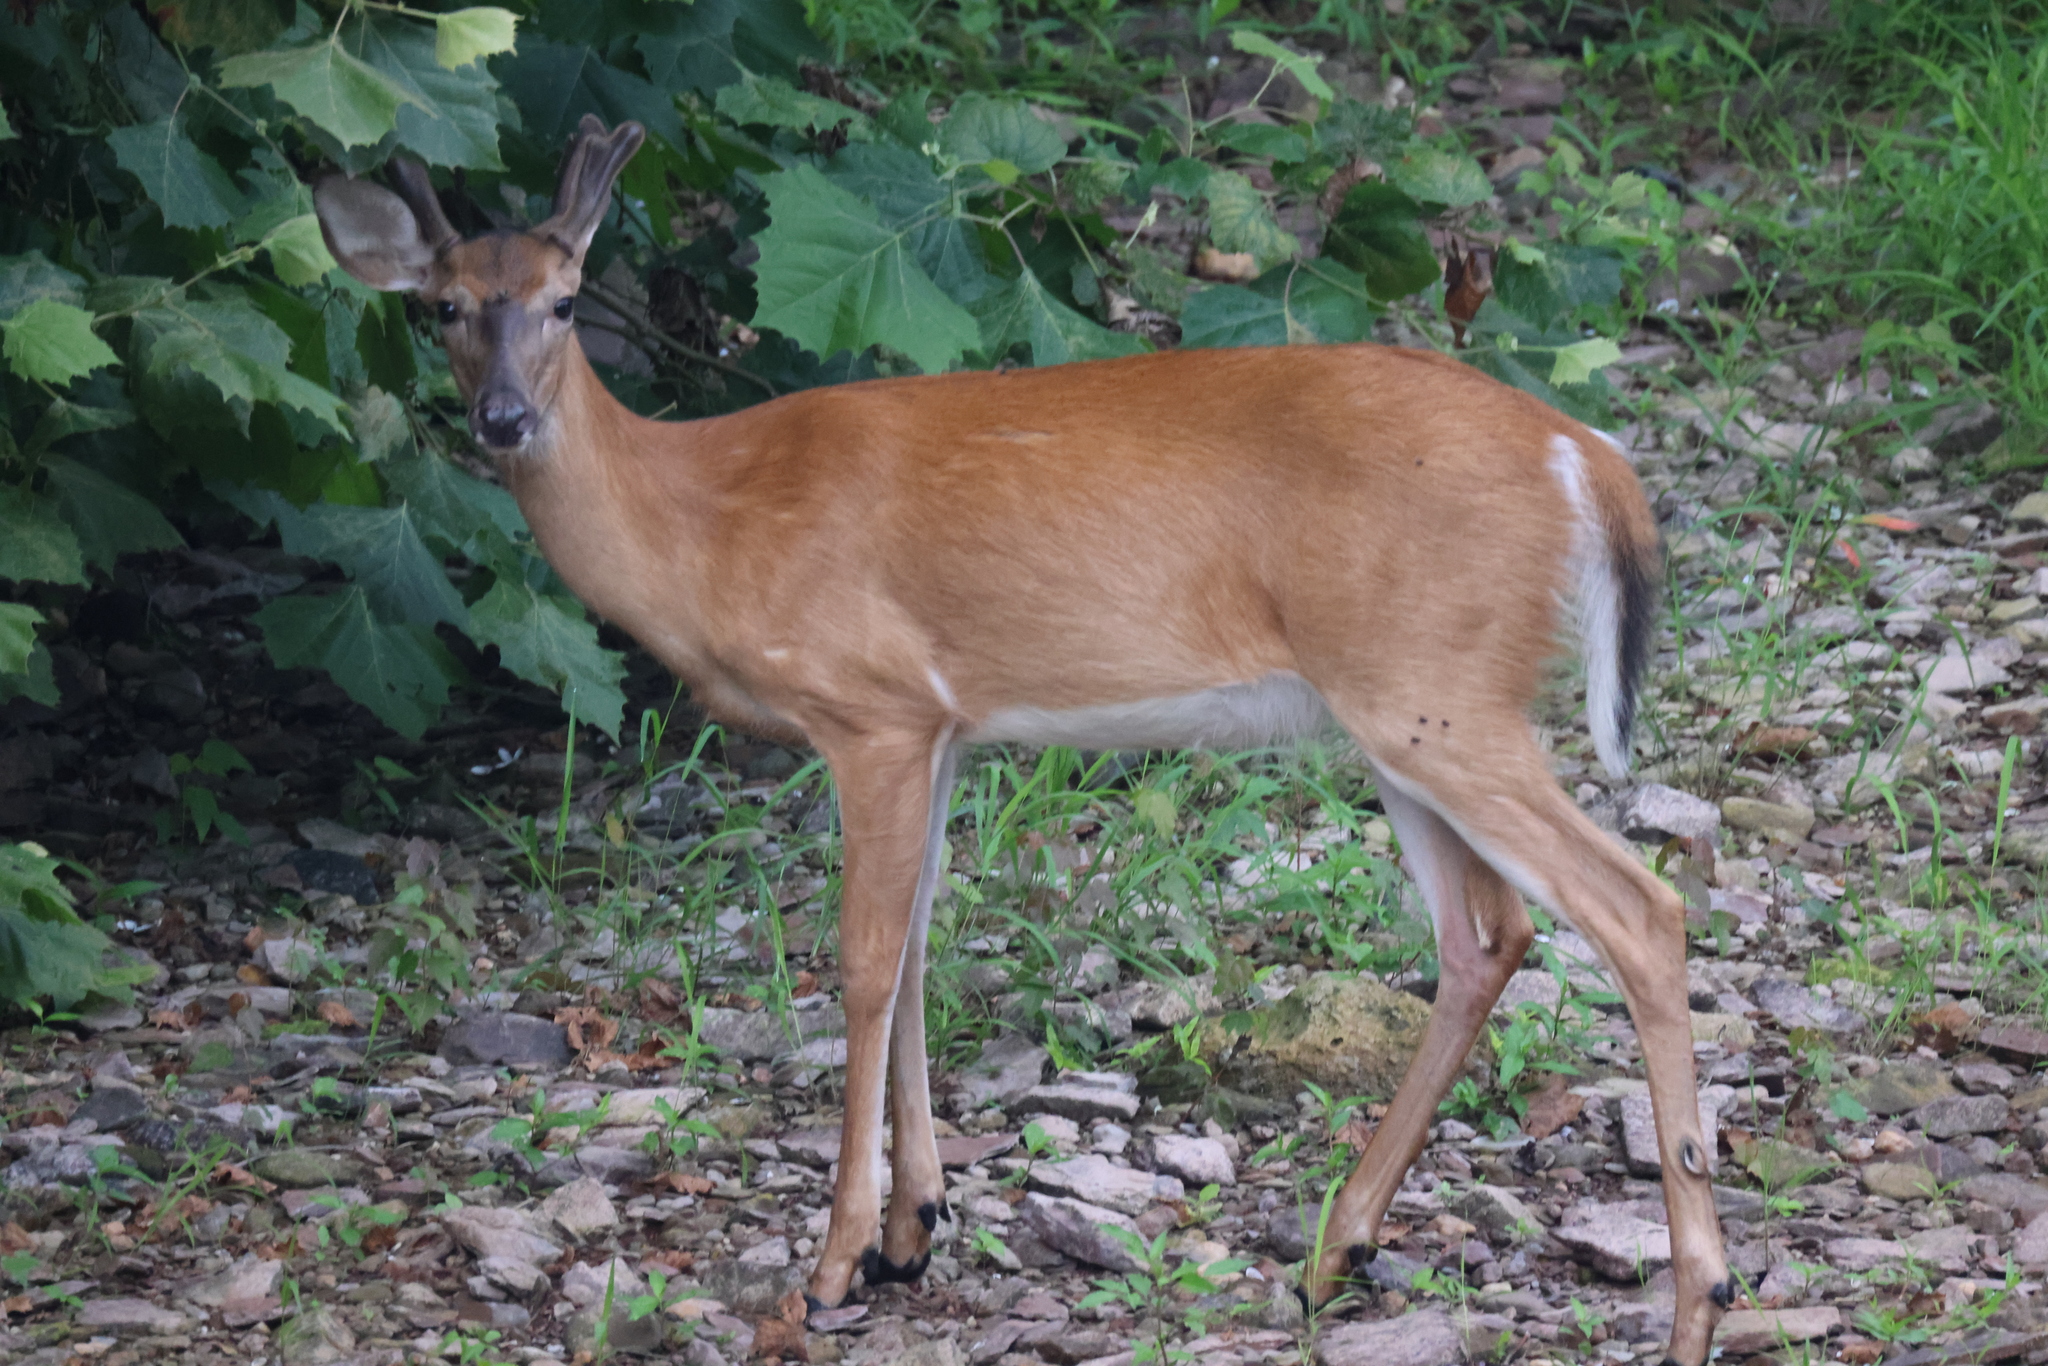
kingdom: Animalia
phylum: Chordata
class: Mammalia
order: Artiodactyla
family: Cervidae
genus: Odocoileus
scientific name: Odocoileus virginianus
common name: White-tailed deer
